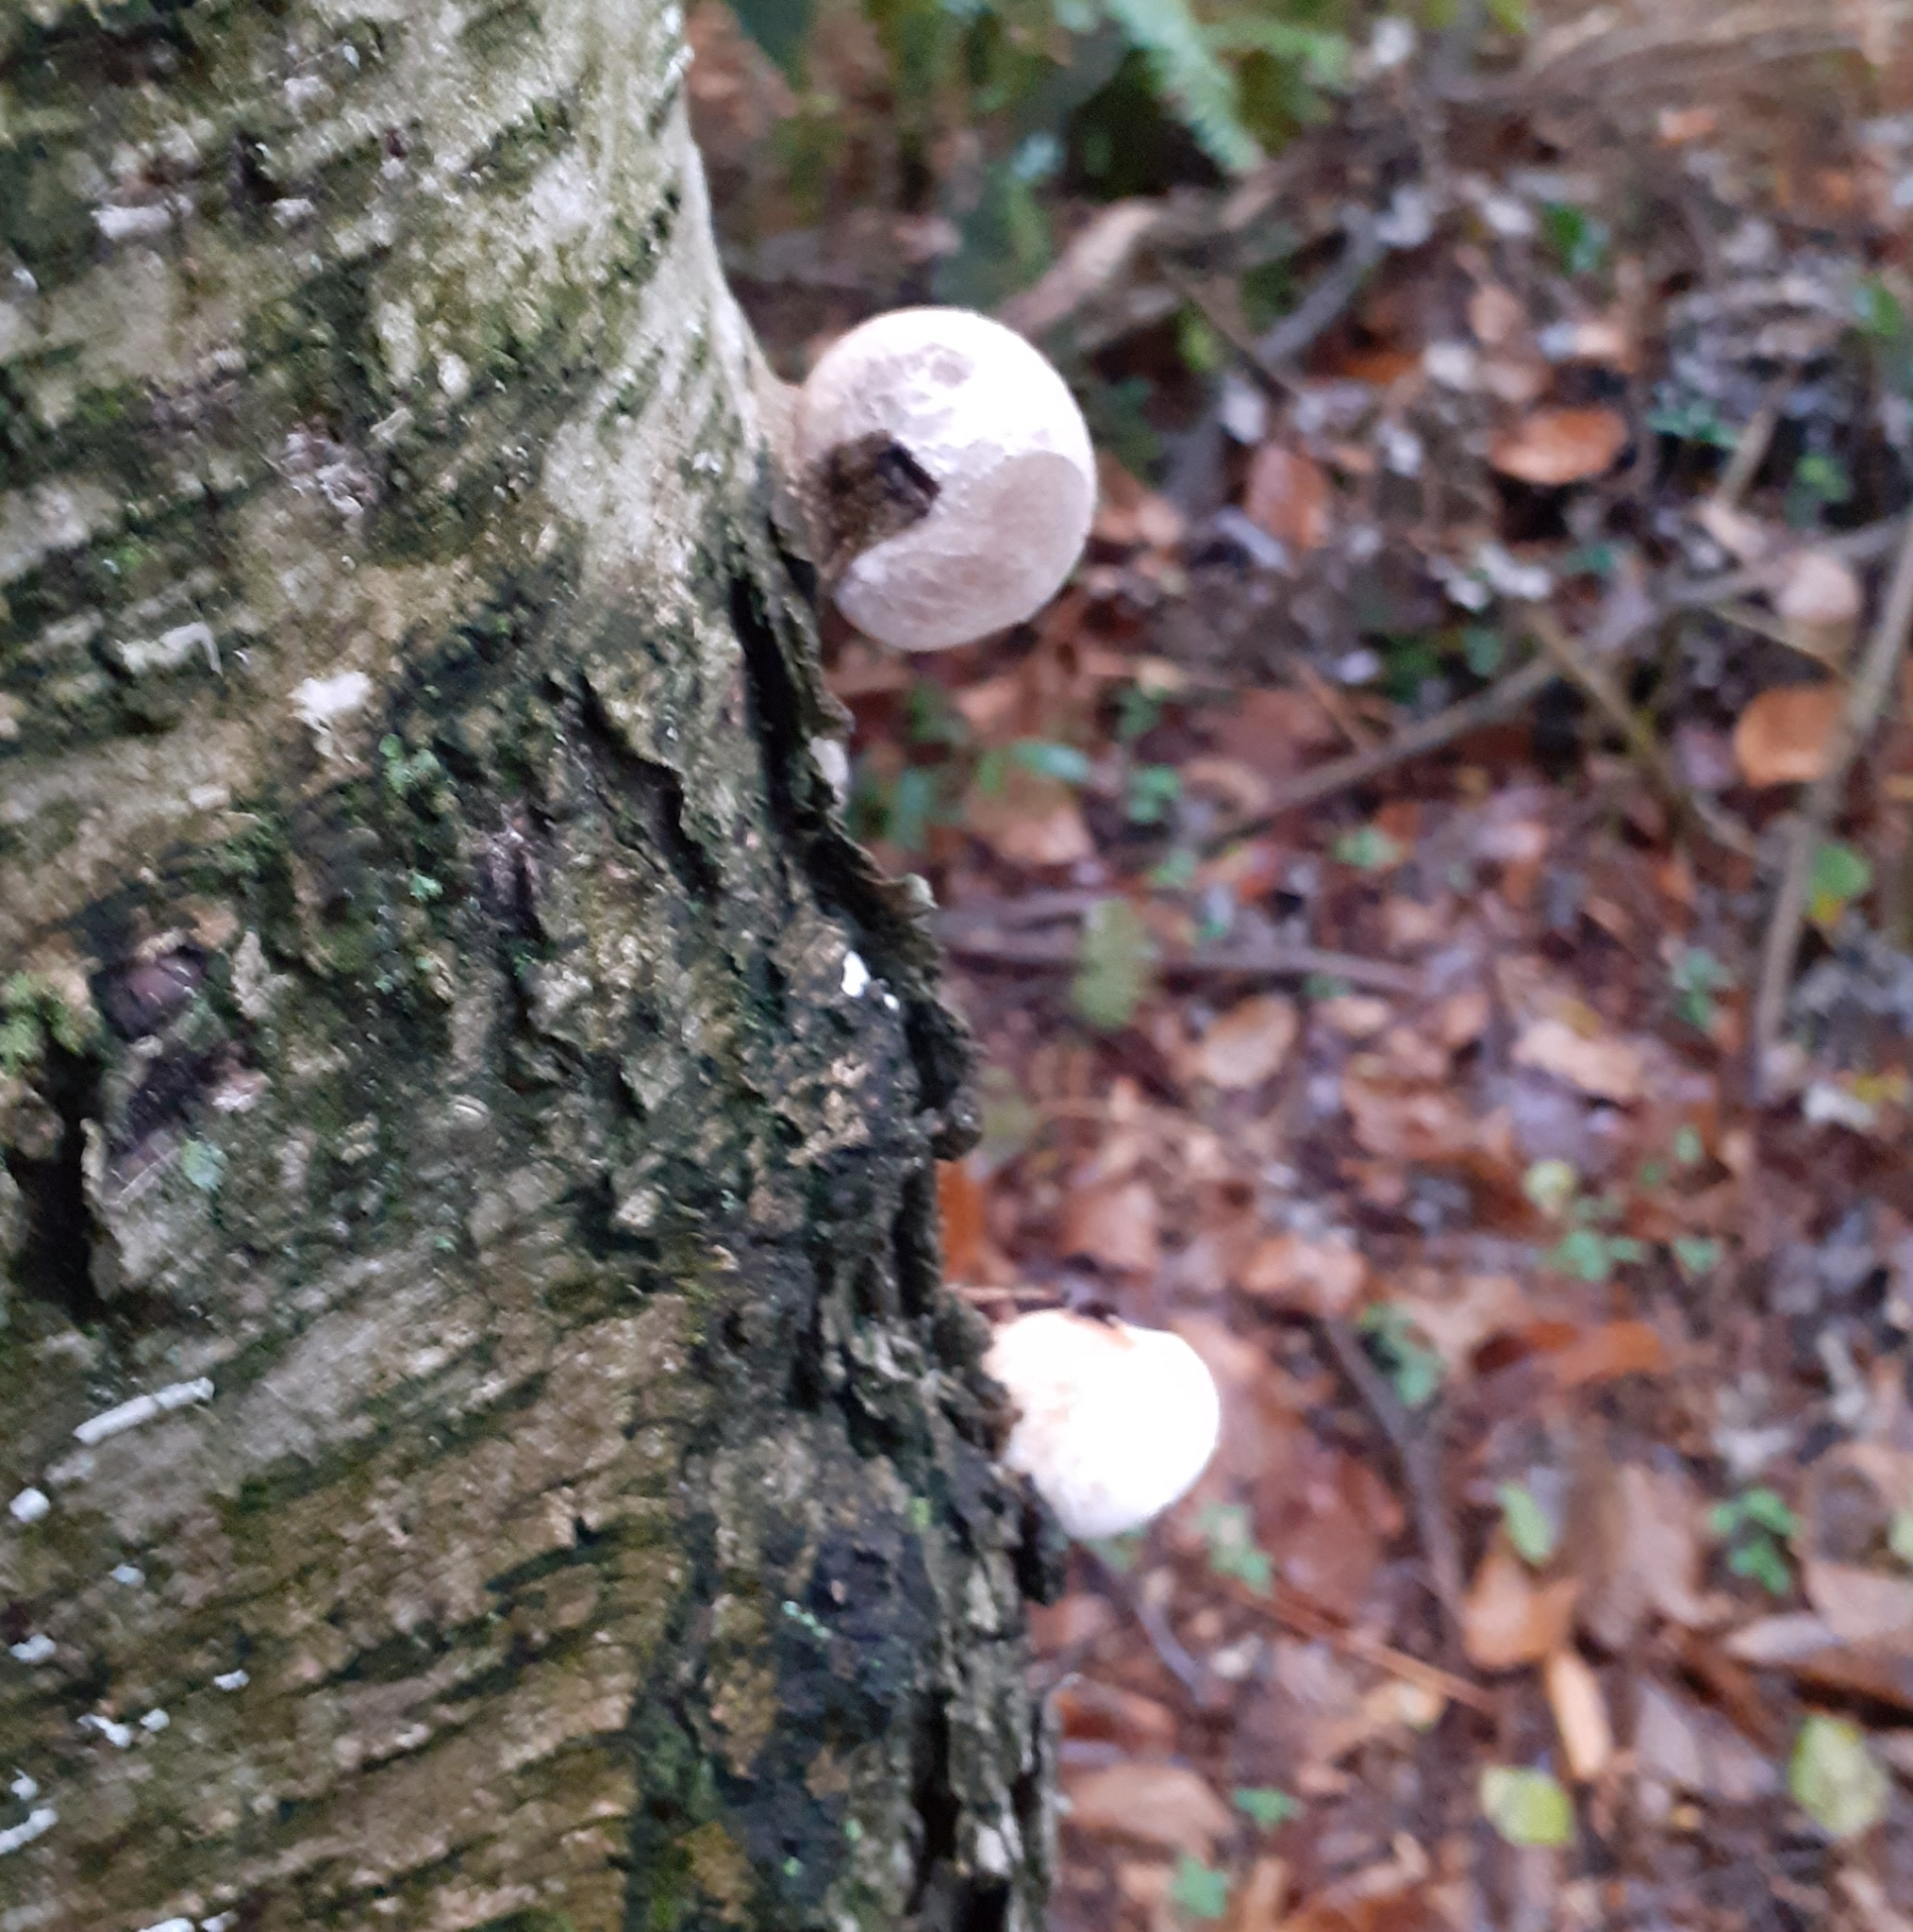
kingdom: Fungi
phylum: Basidiomycota
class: Agaricomycetes
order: Polyporales
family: Fomitopsidaceae
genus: Fomitopsis
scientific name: Fomitopsis betulina
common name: Birch polypore
